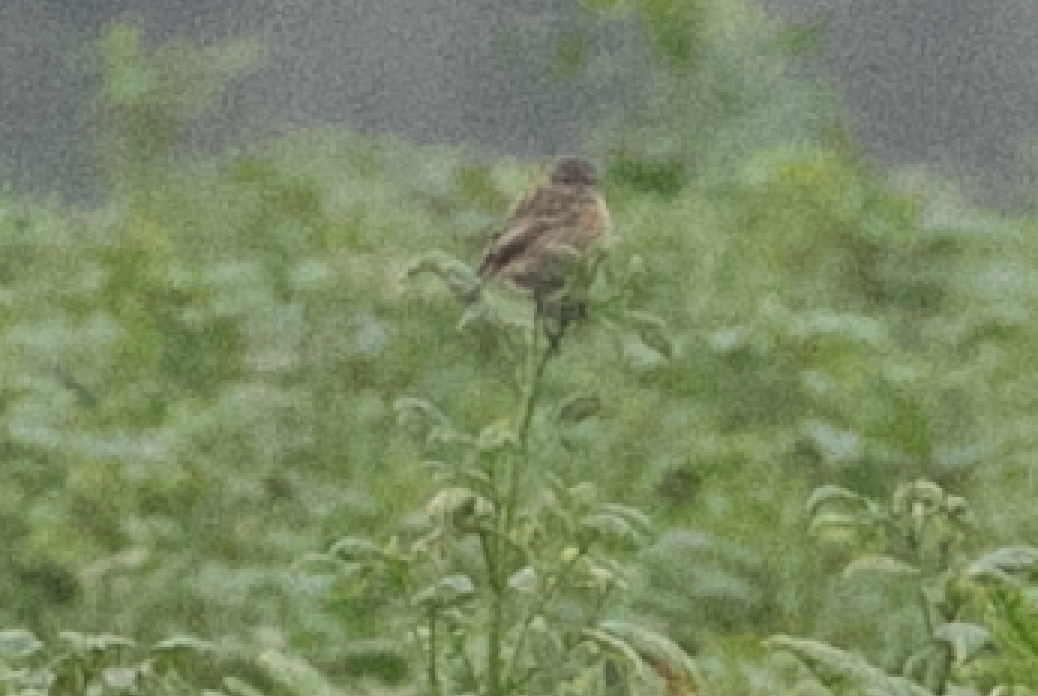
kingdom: Animalia
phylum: Chordata
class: Aves
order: Passeriformes
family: Muscicapidae
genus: Saxicola
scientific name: Saxicola rubicola
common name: European stonechat
